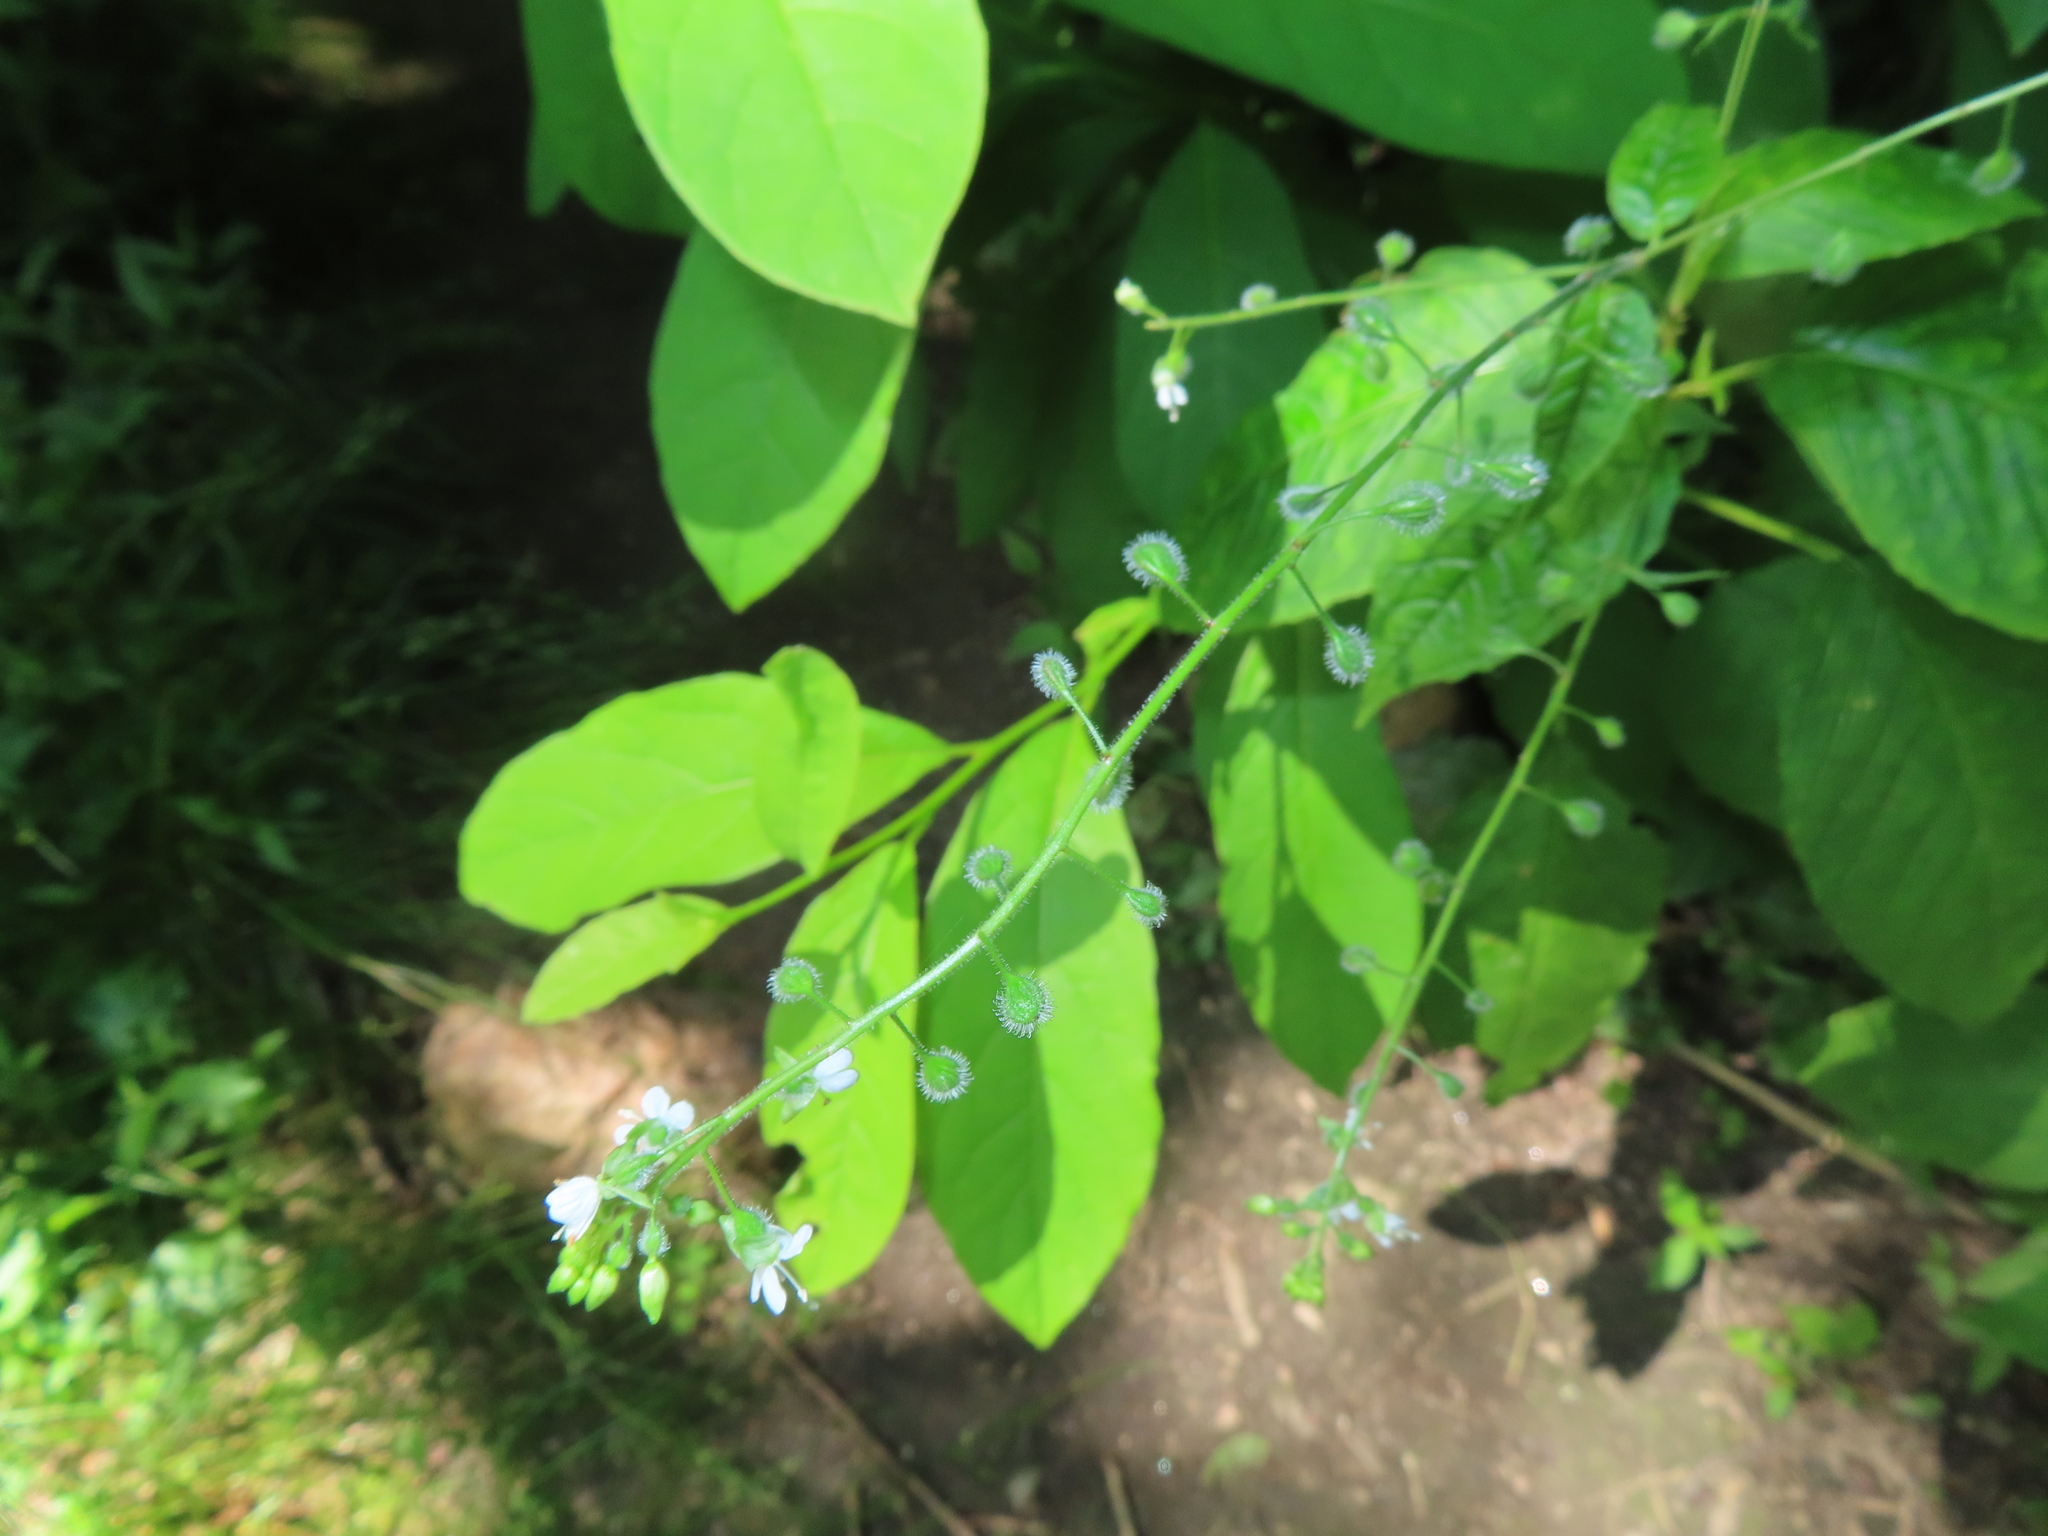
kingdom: Plantae
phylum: Tracheophyta
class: Magnoliopsida
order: Myrtales
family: Onagraceae
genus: Circaea
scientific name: Circaea canadensis
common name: Broad-leaved enchanter's nightshade
